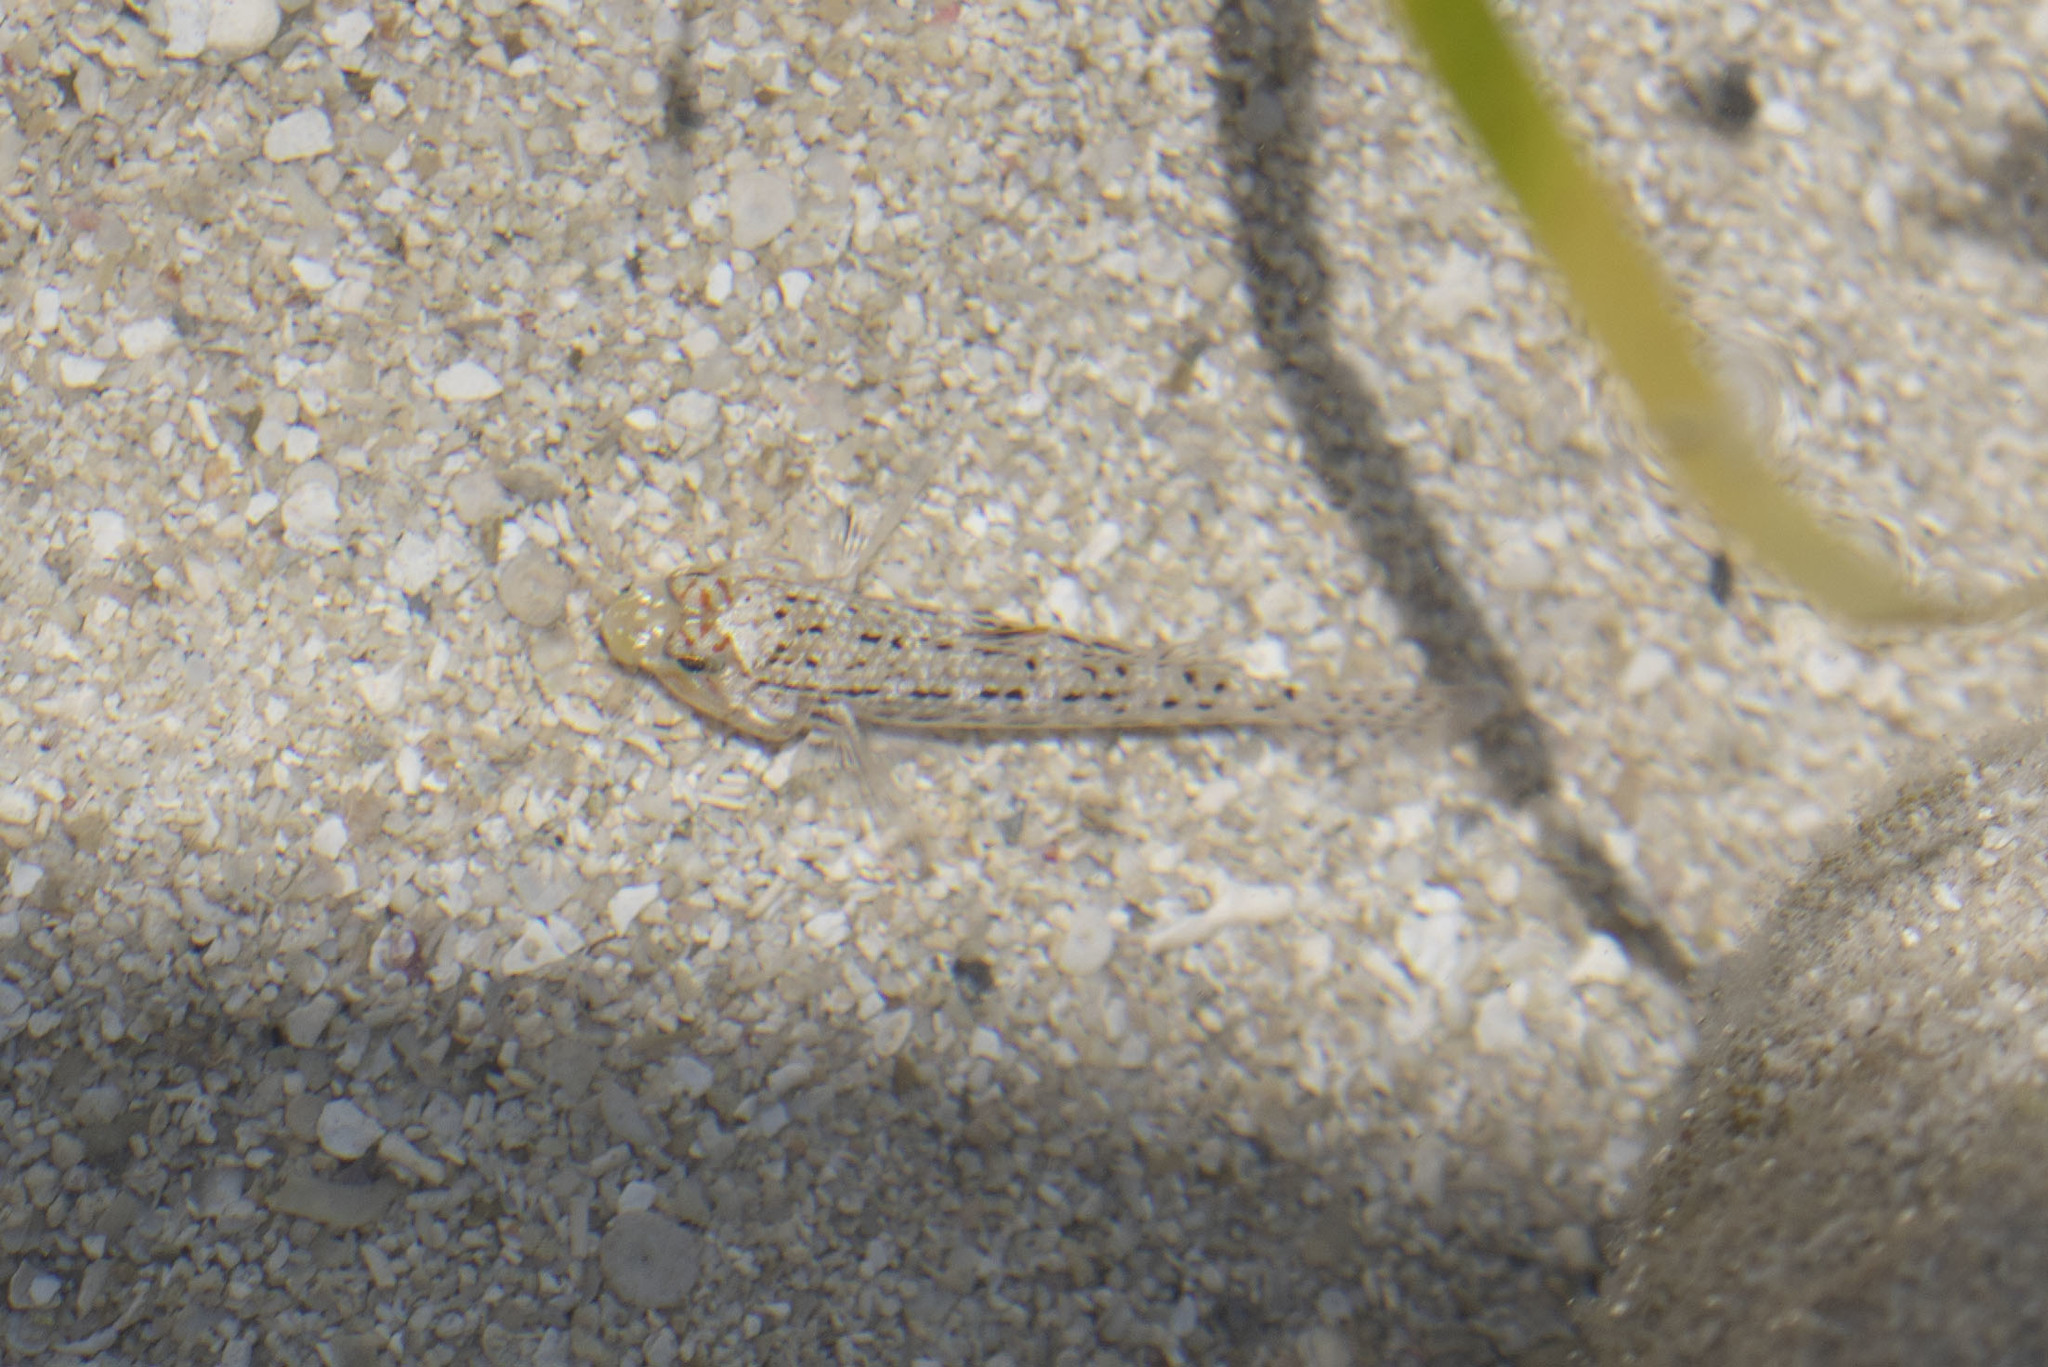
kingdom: Animalia
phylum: Chordata
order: Perciformes
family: Gobiidae
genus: Istigobius
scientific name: Istigobius ornatus
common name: Ornate goby
